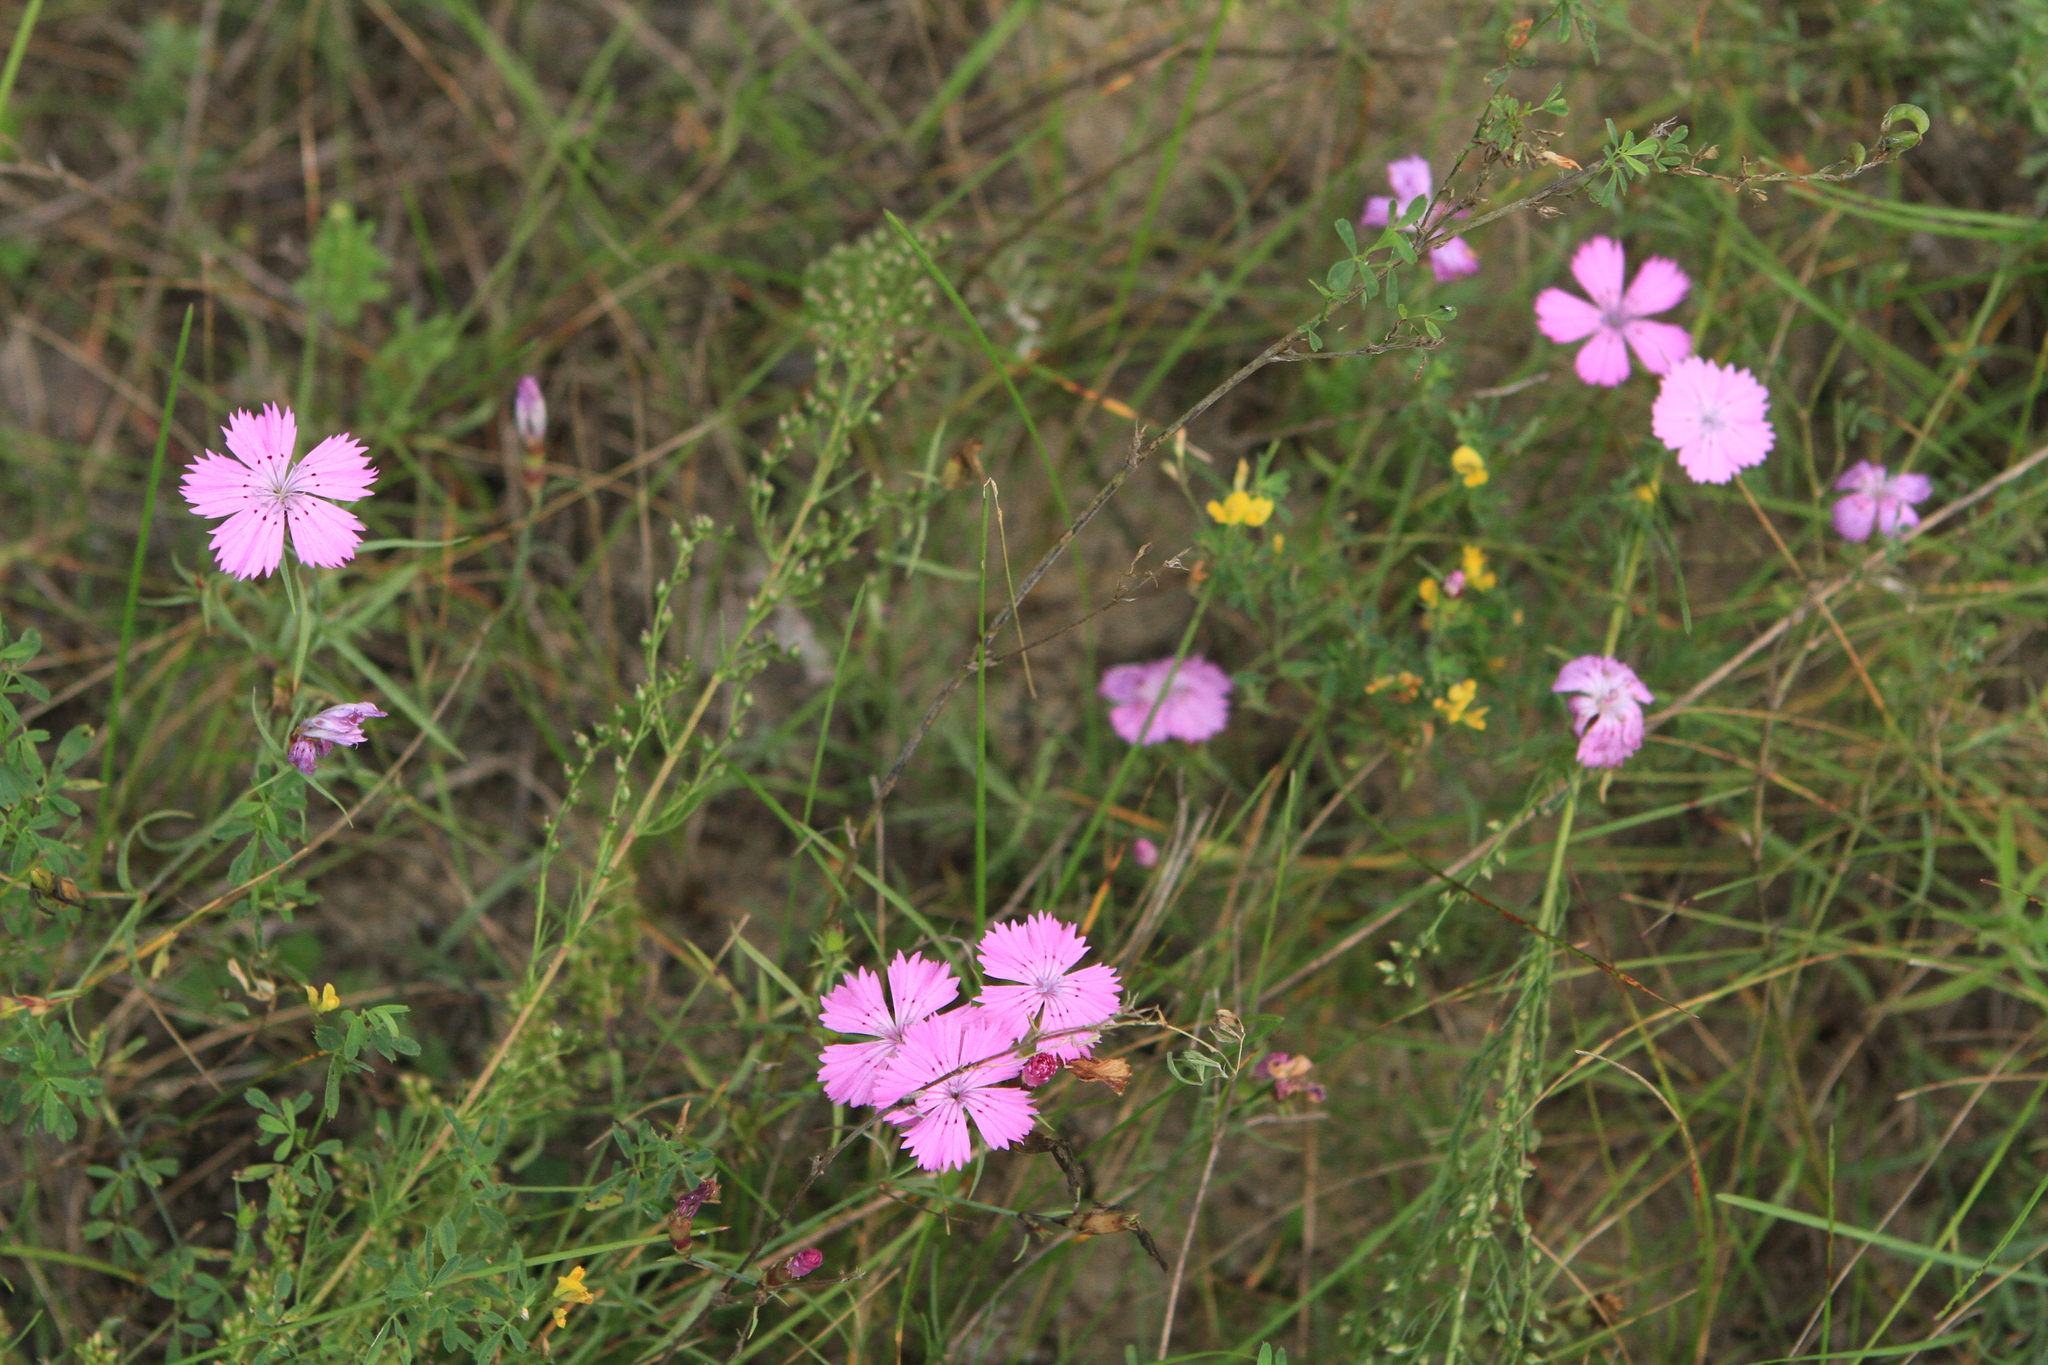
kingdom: Plantae
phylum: Tracheophyta
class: Magnoliopsida
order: Caryophyllales
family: Caryophyllaceae
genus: Dianthus
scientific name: Dianthus chinensis
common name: Rainbow pink
